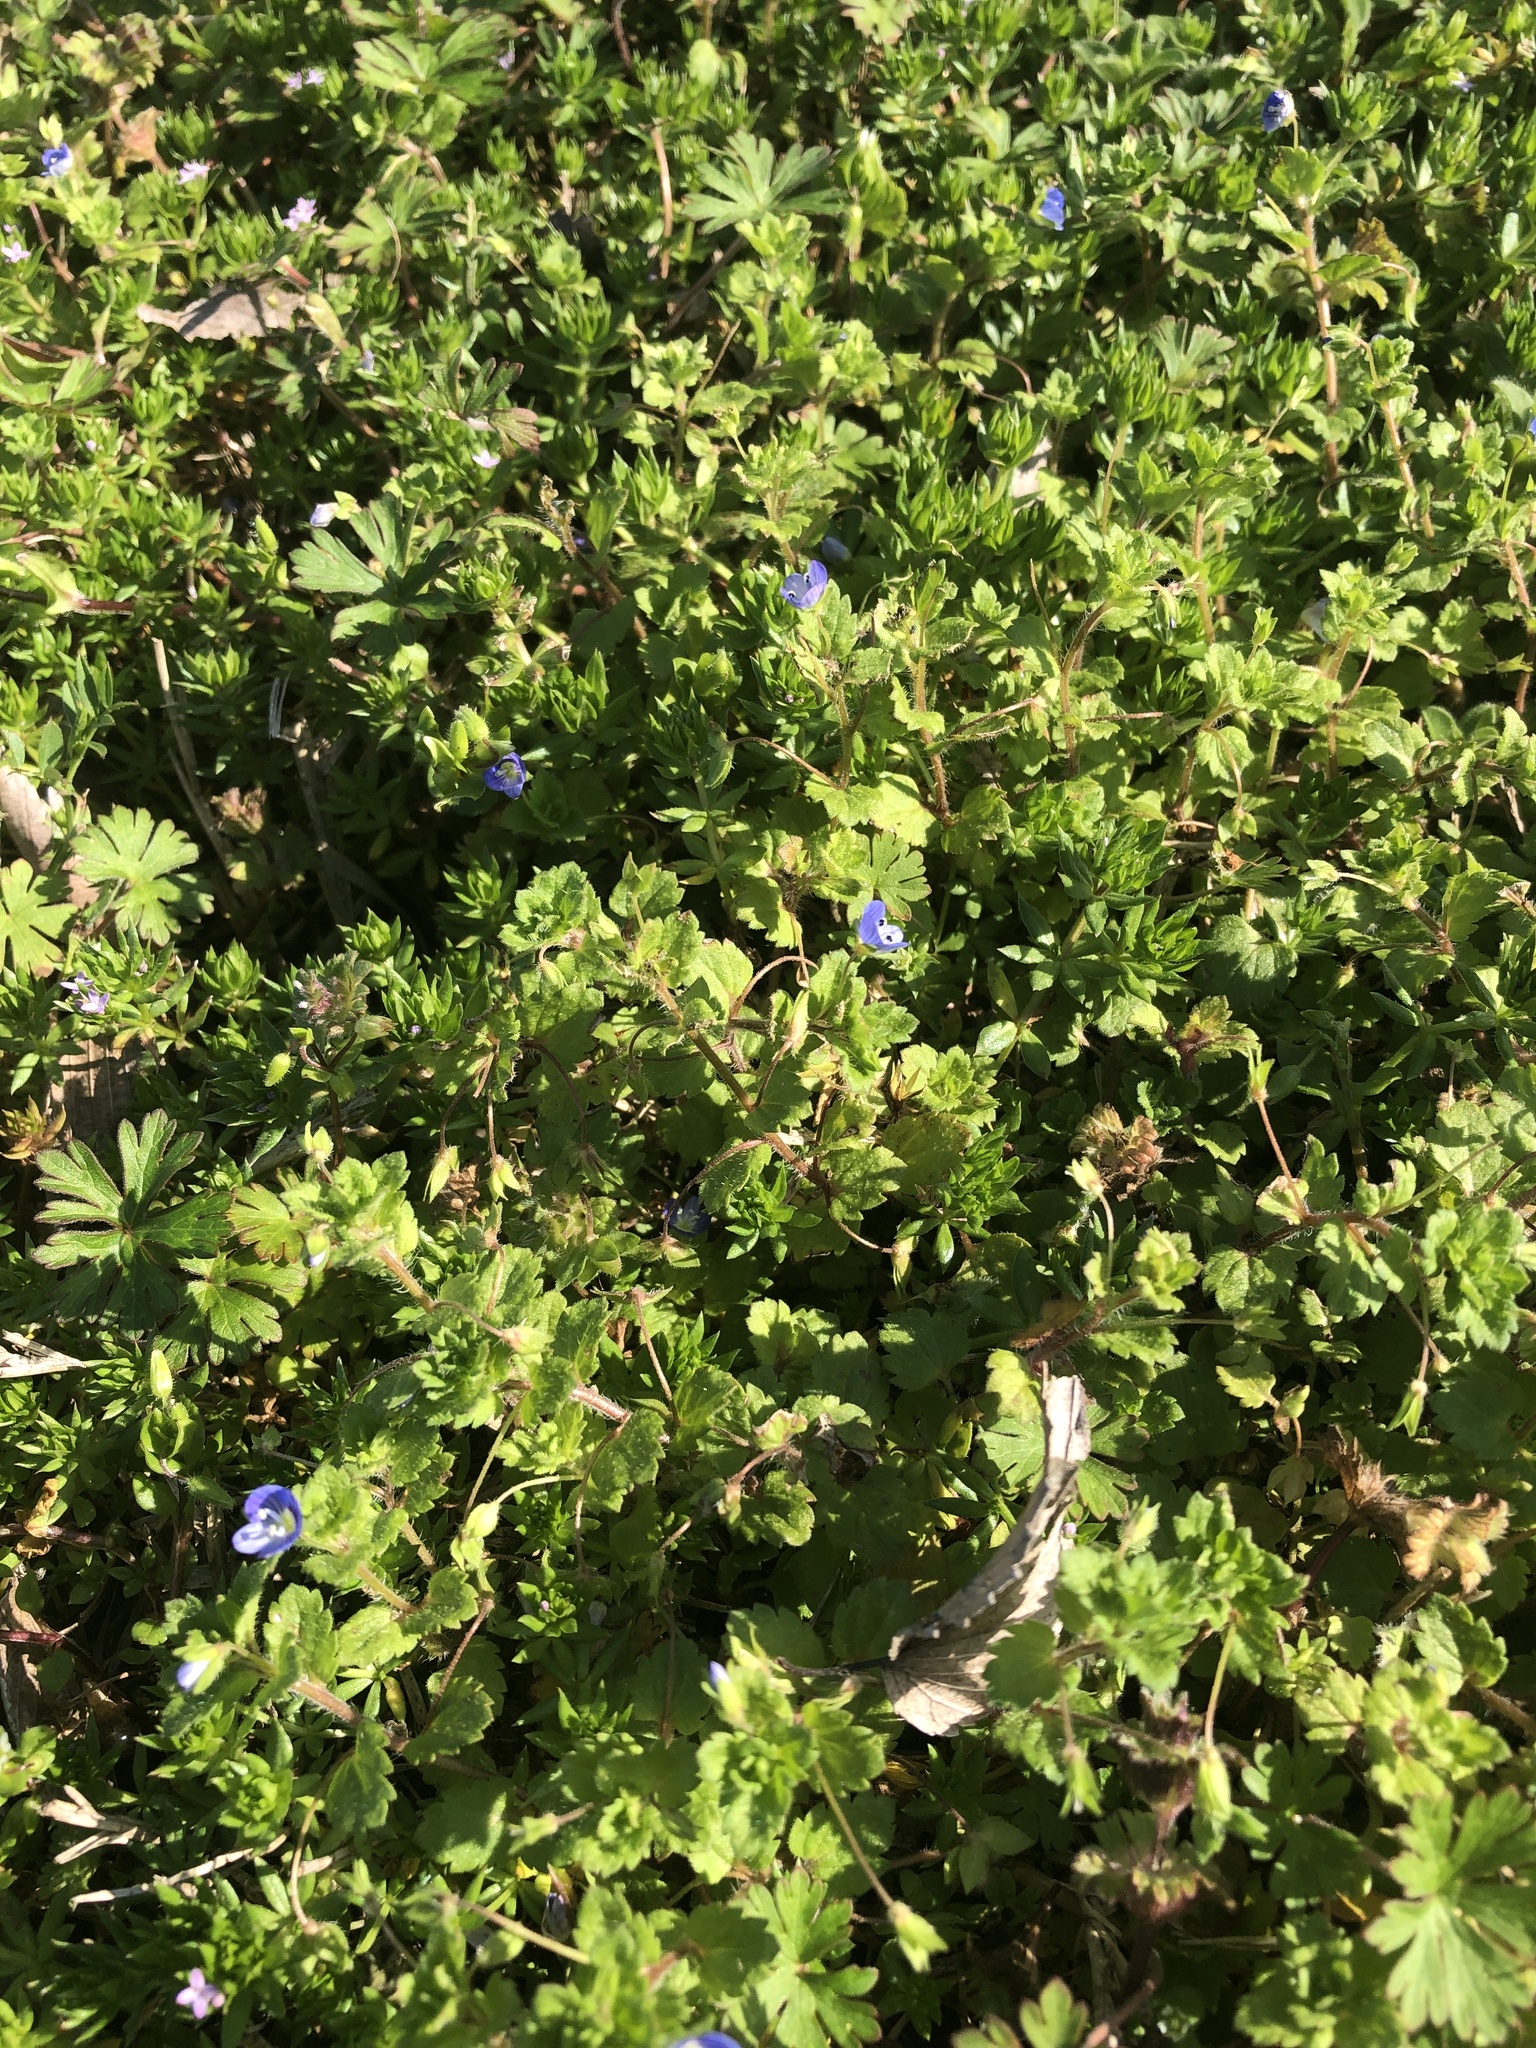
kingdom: Plantae
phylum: Tracheophyta
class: Magnoliopsida
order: Lamiales
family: Plantaginaceae
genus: Veronica
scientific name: Veronica persica
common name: Common field-speedwell
